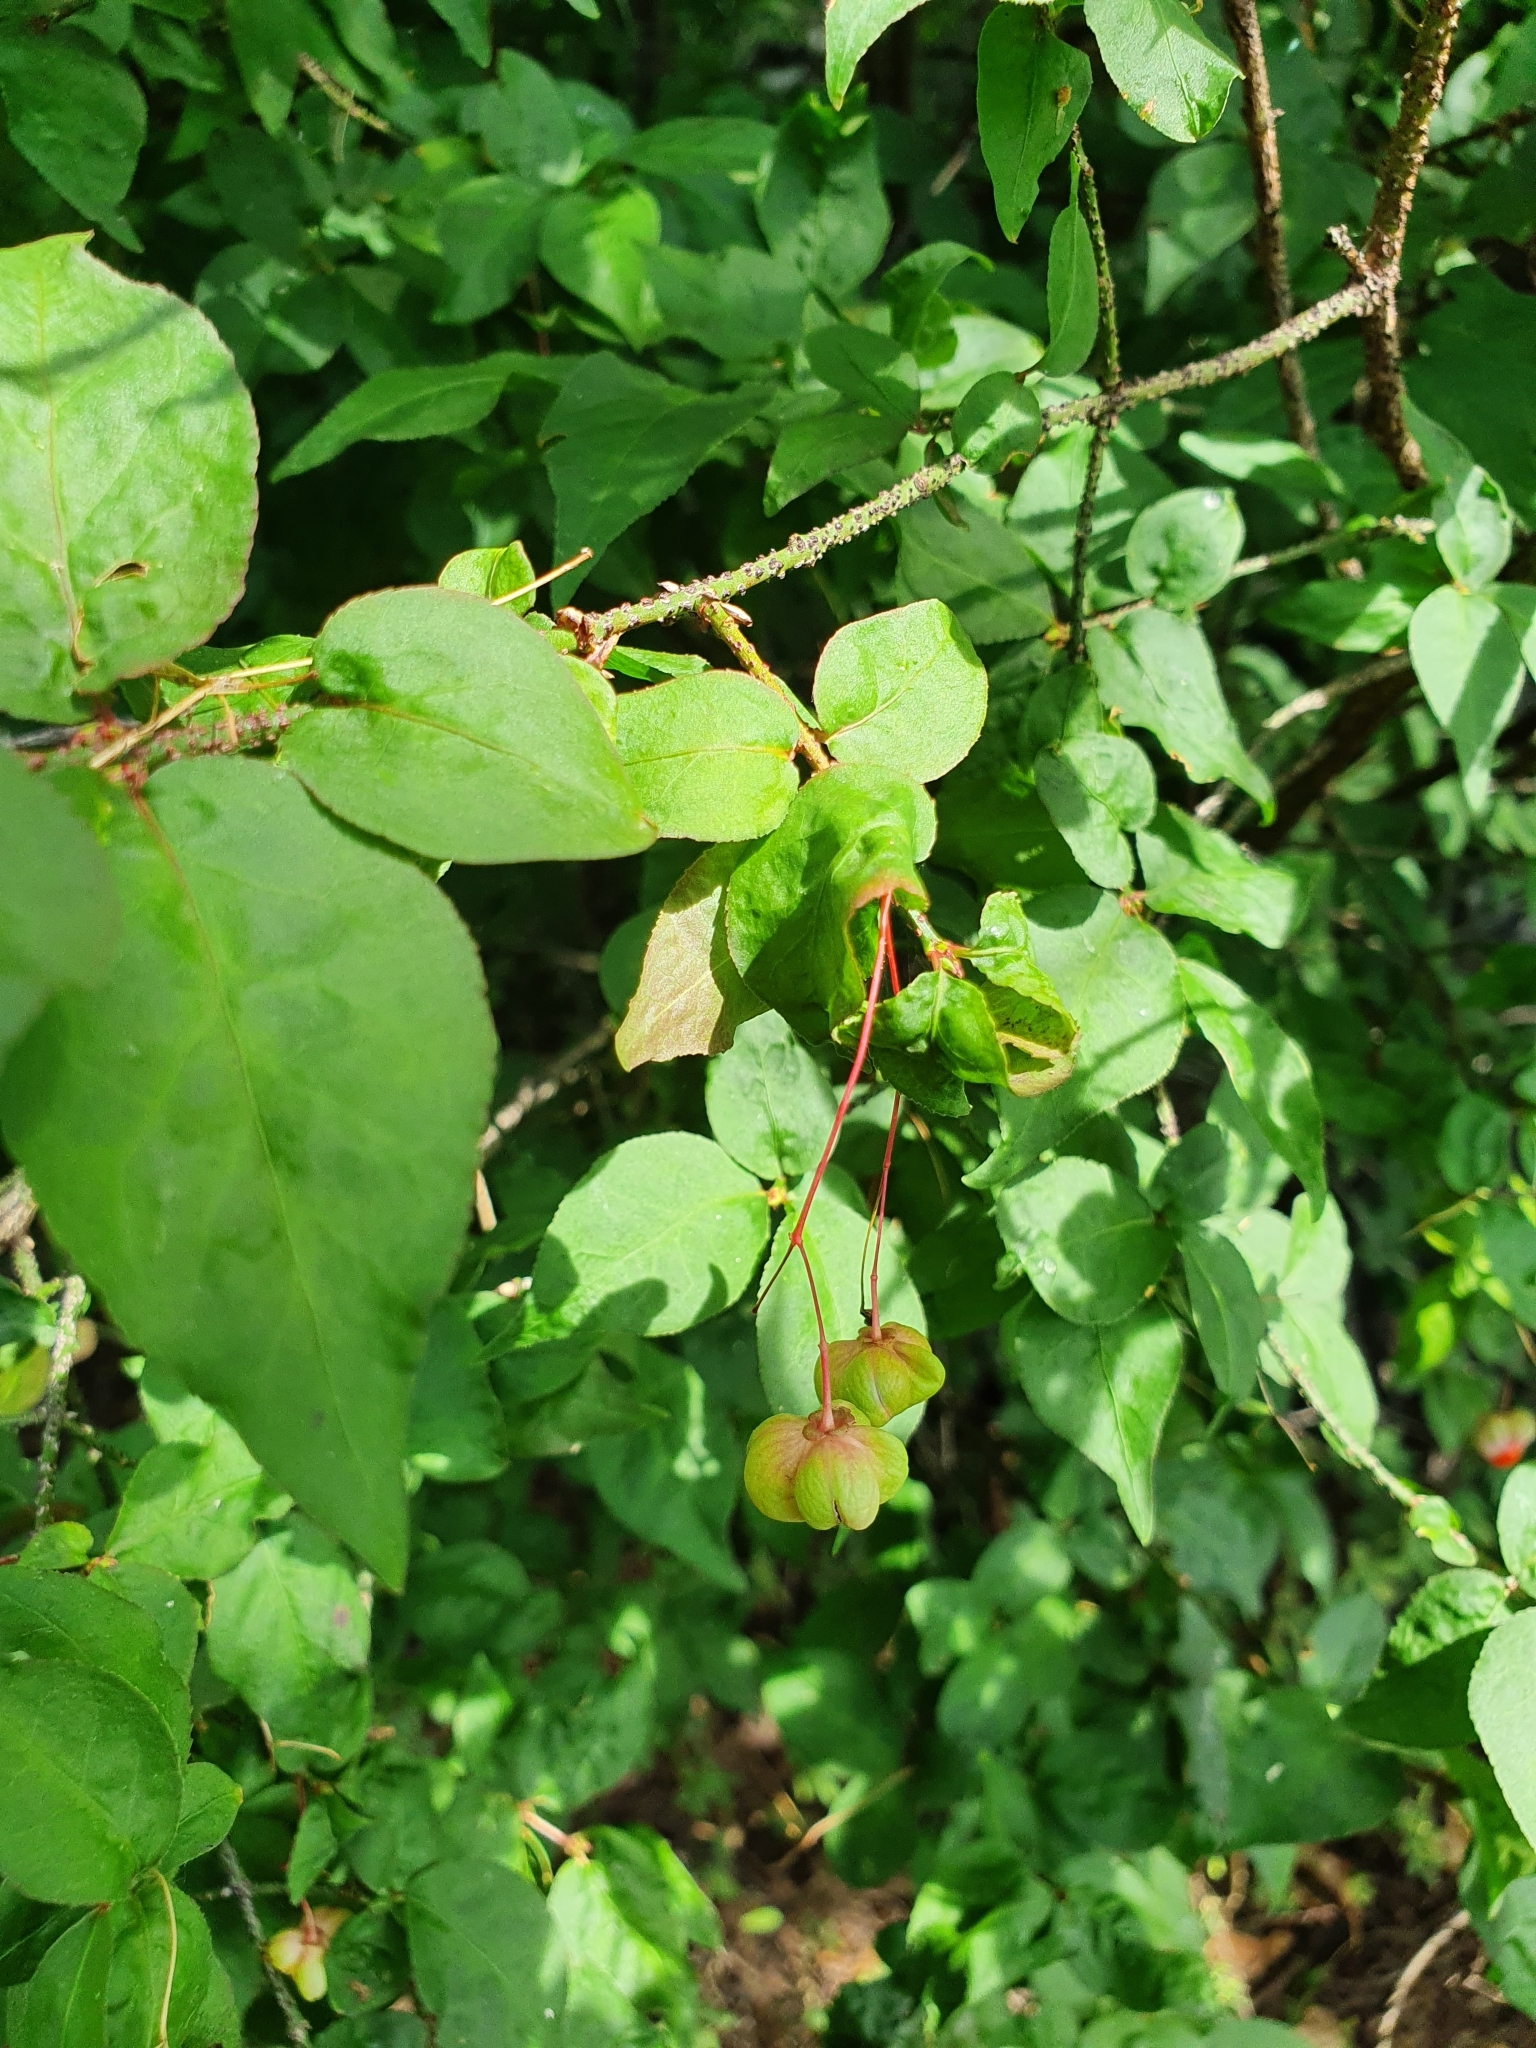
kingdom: Plantae
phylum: Tracheophyta
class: Magnoliopsida
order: Celastrales
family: Celastraceae
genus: Euonymus
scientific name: Euonymus verrucosus
